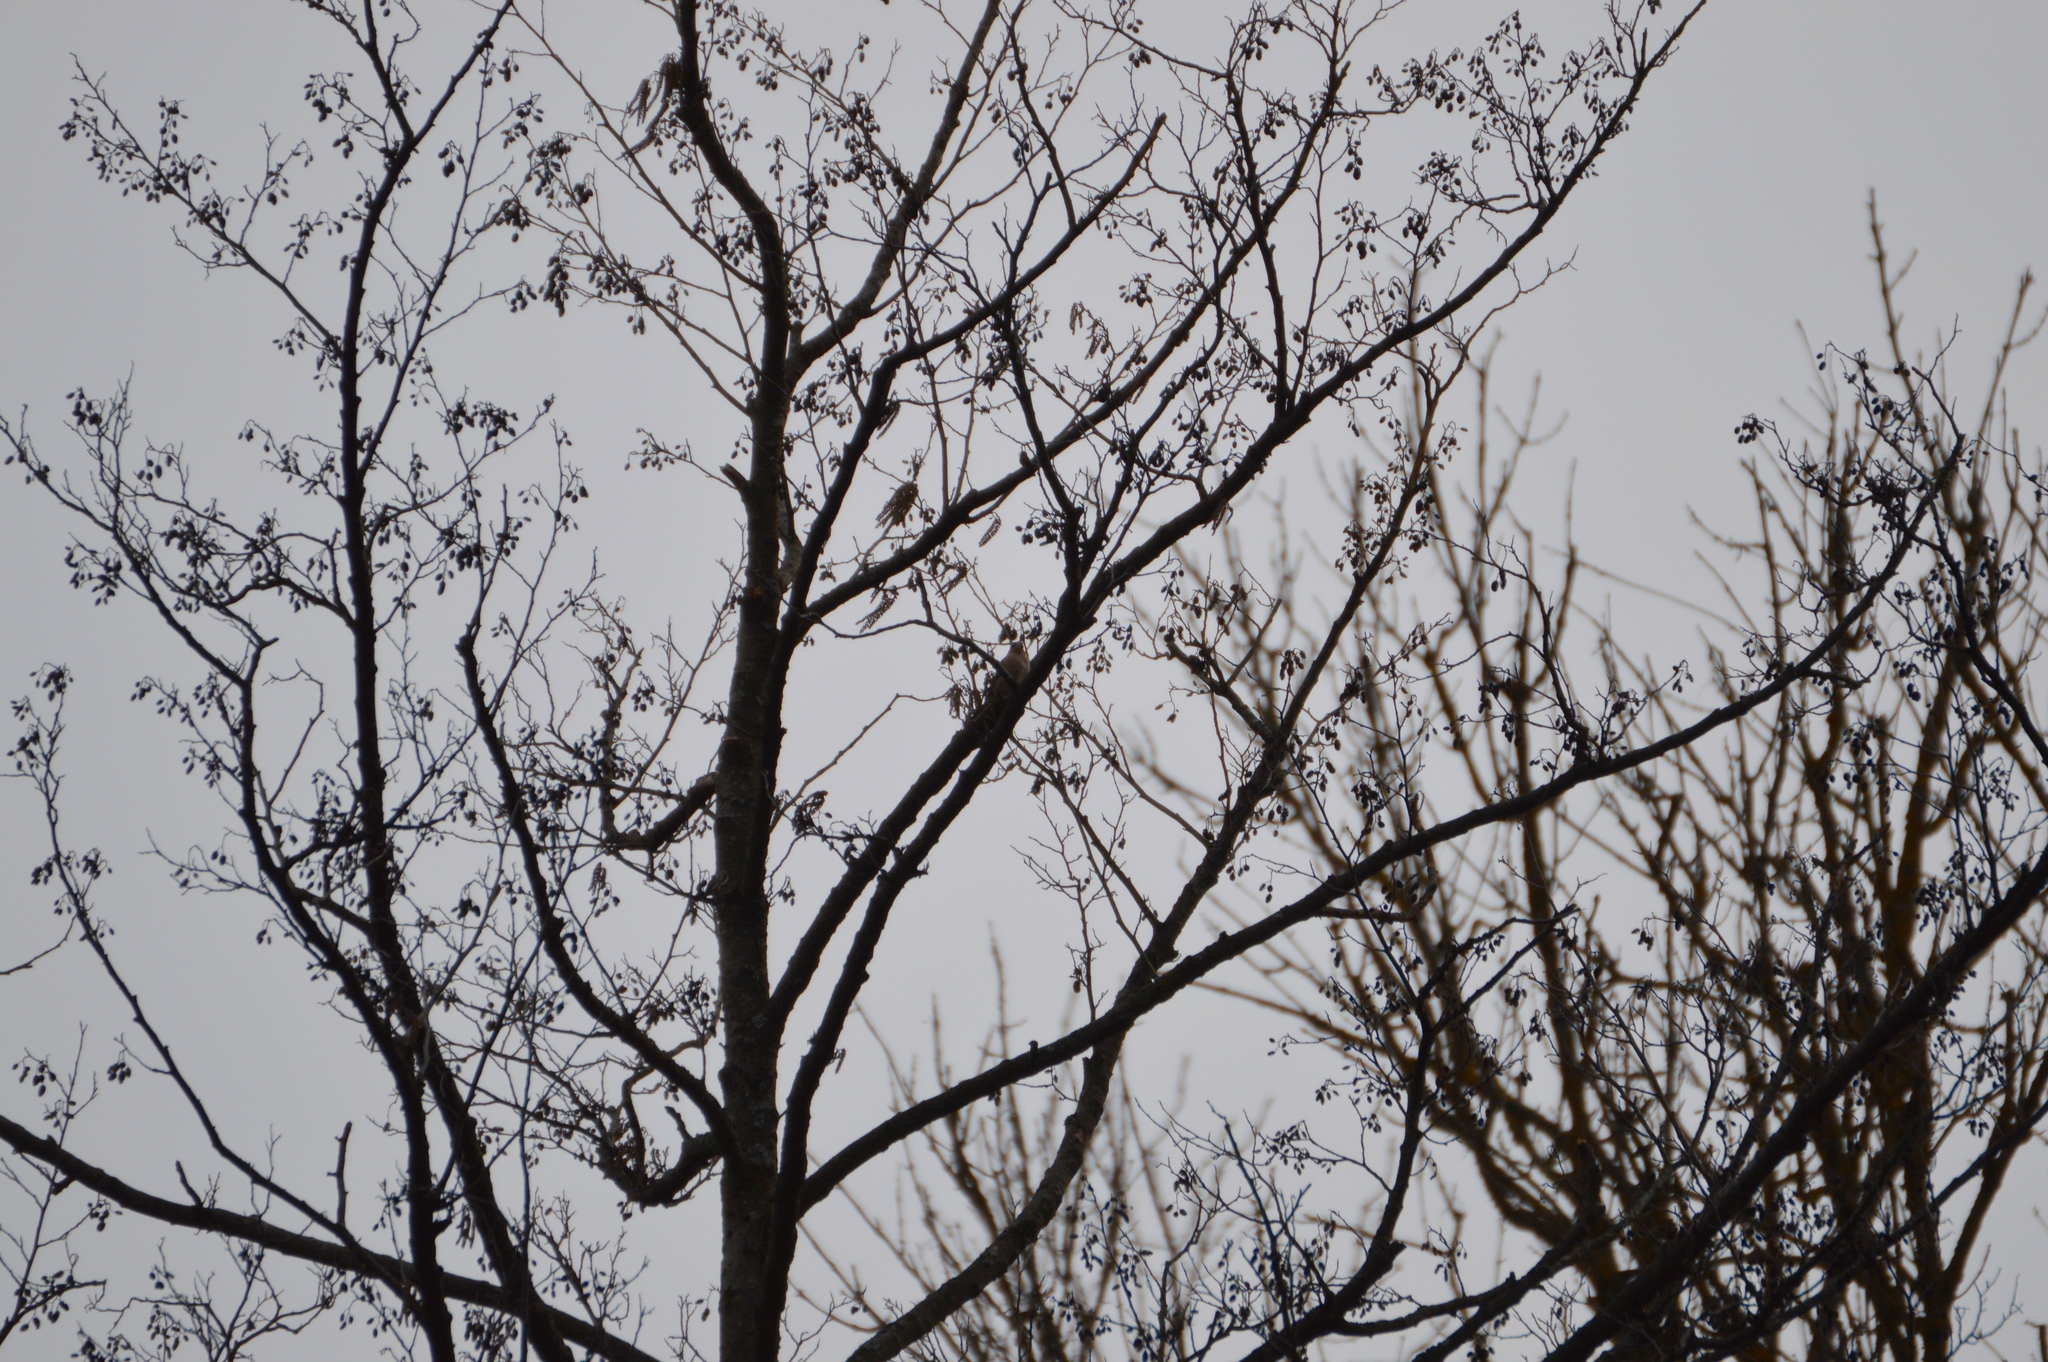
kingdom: Animalia
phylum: Chordata
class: Aves
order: Passeriformes
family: Fringillidae
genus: Fringilla
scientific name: Fringilla coelebs
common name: Common chaffinch
